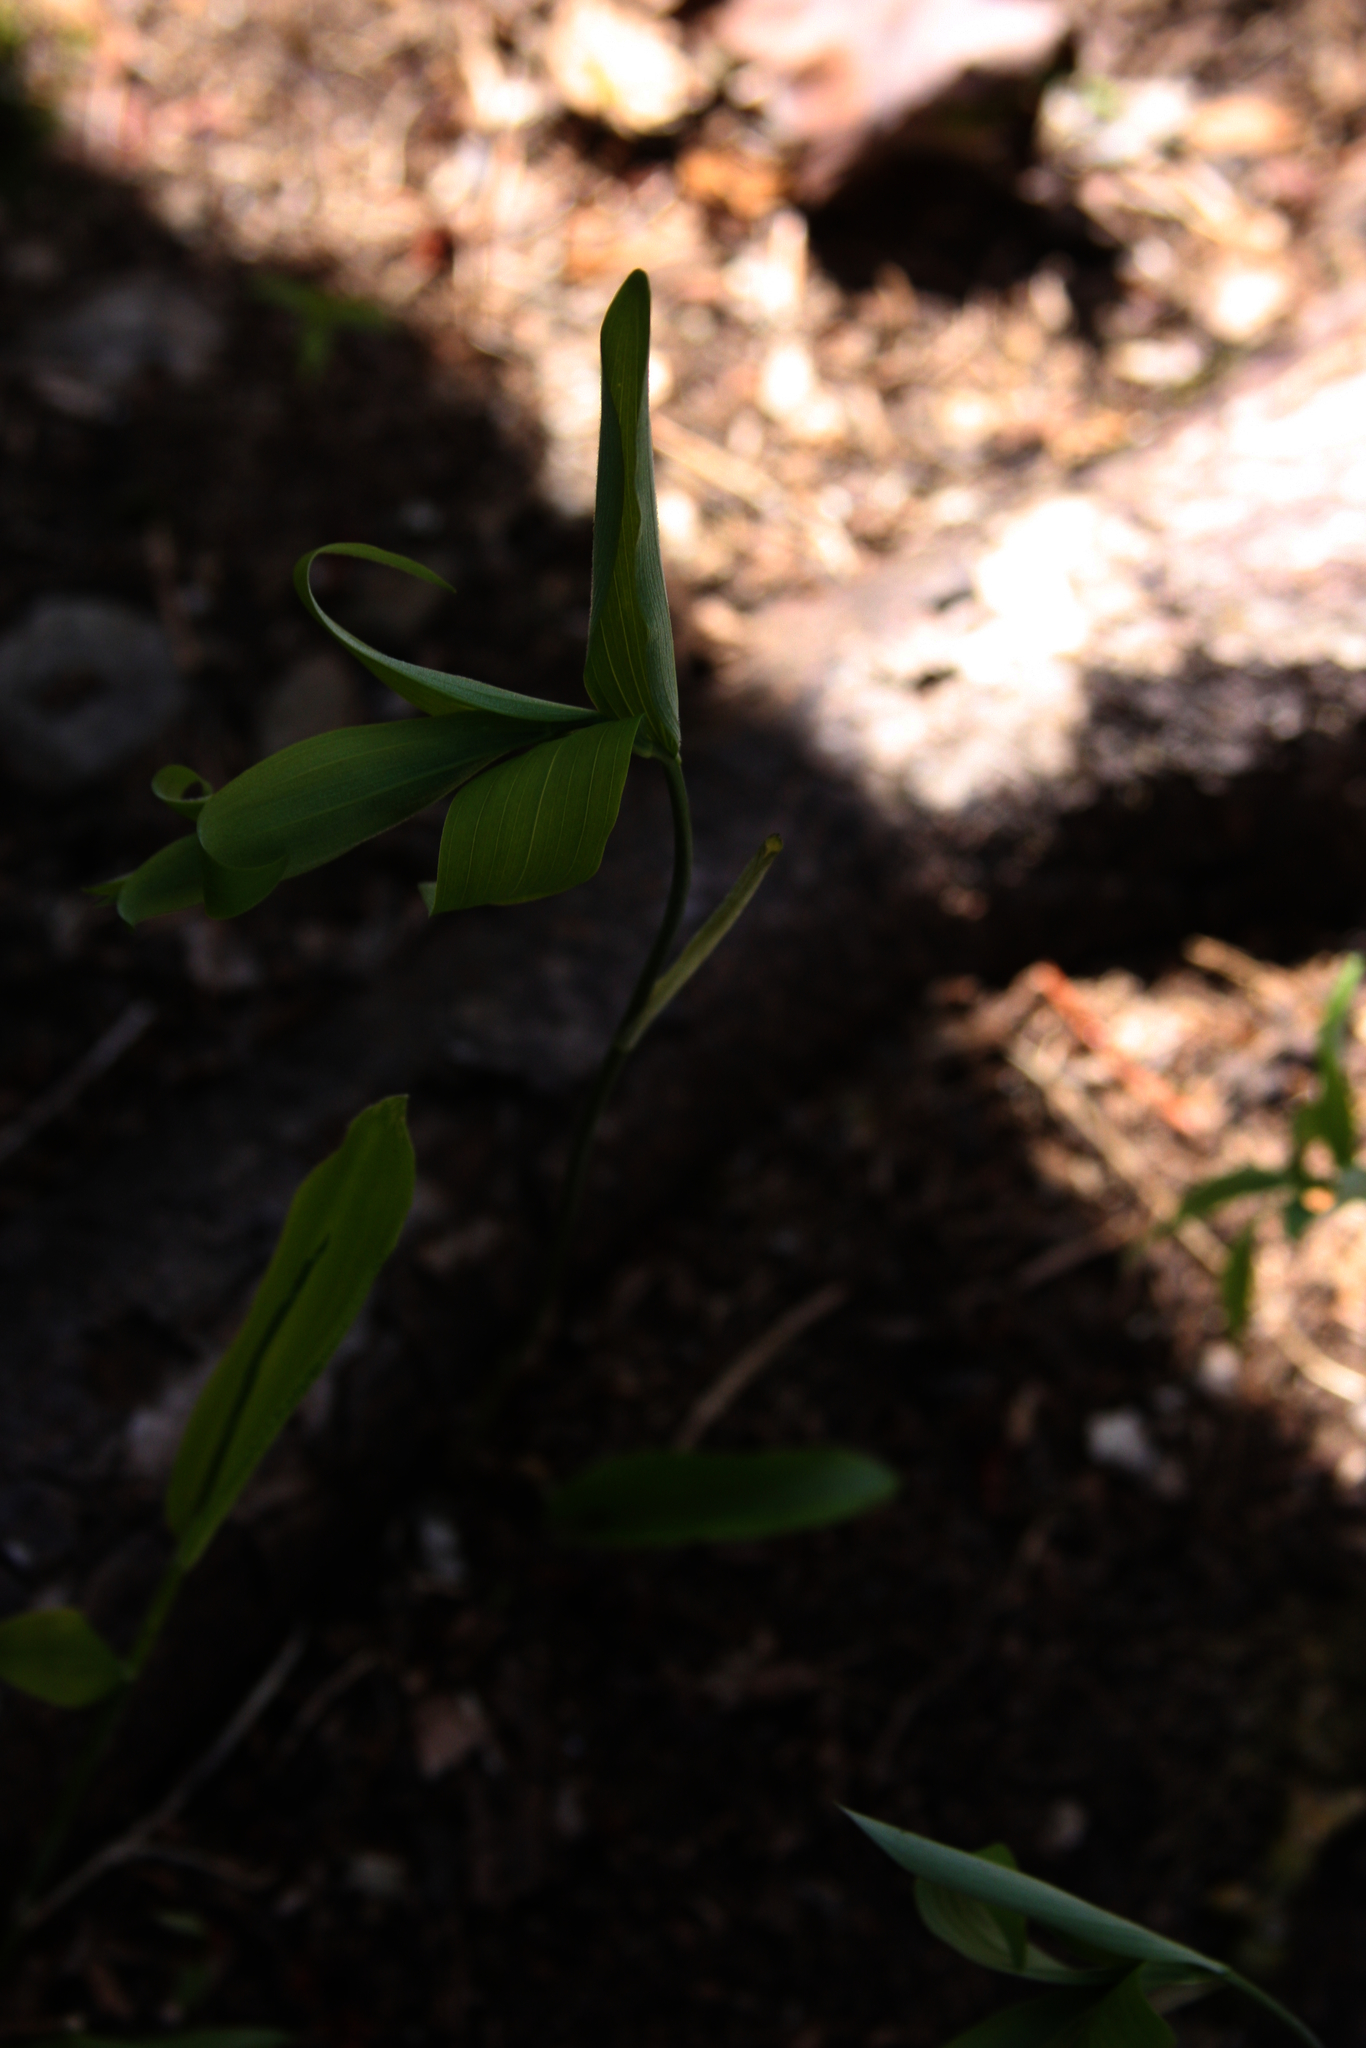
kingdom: Plantae
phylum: Tracheophyta
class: Liliopsida
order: Asparagales
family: Asparagaceae
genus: Polygonatum
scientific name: Polygonatum pubescens
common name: Downy solomon's seal
